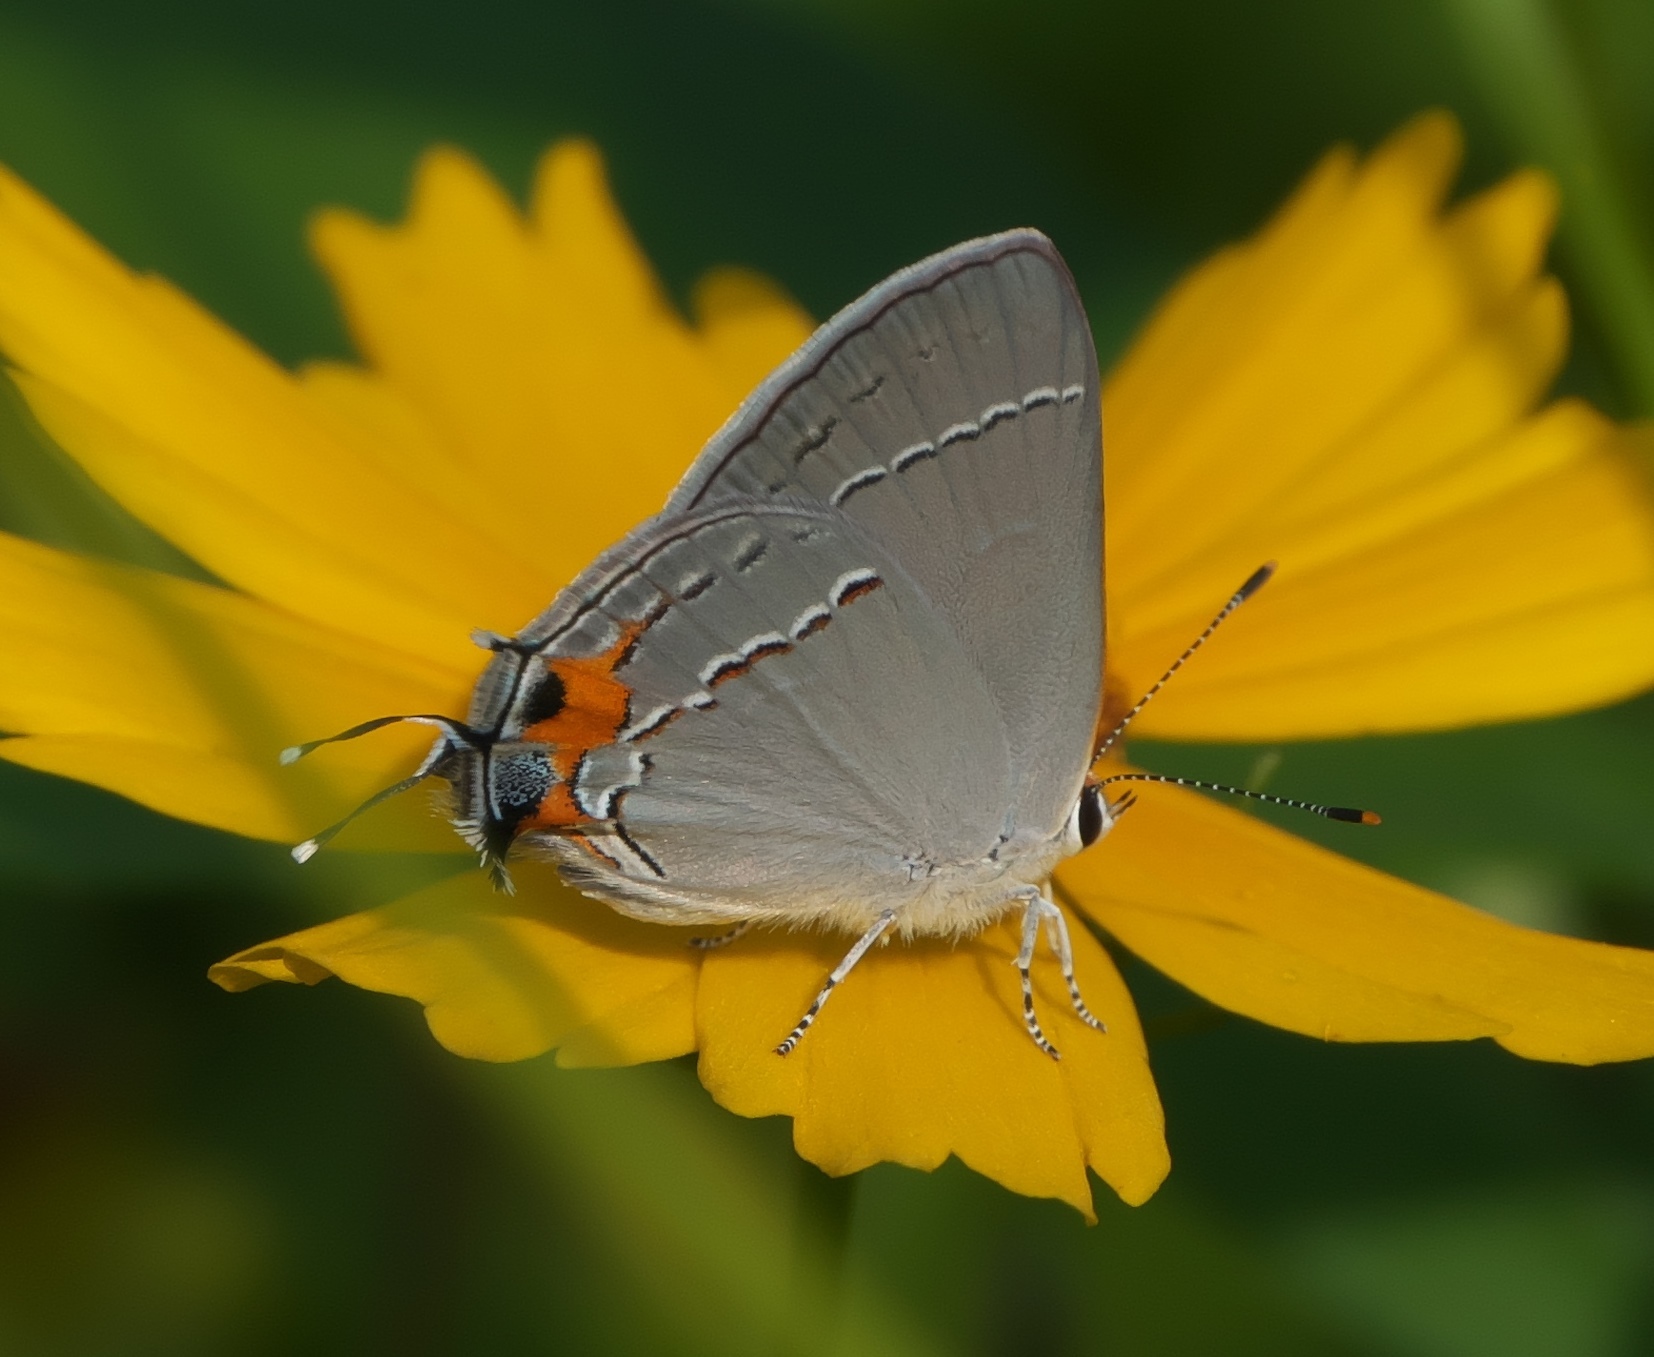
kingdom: Animalia
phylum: Arthropoda
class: Insecta
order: Lepidoptera
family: Lycaenidae
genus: Strymon
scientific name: Strymon melinus
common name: Gray hairstreak
